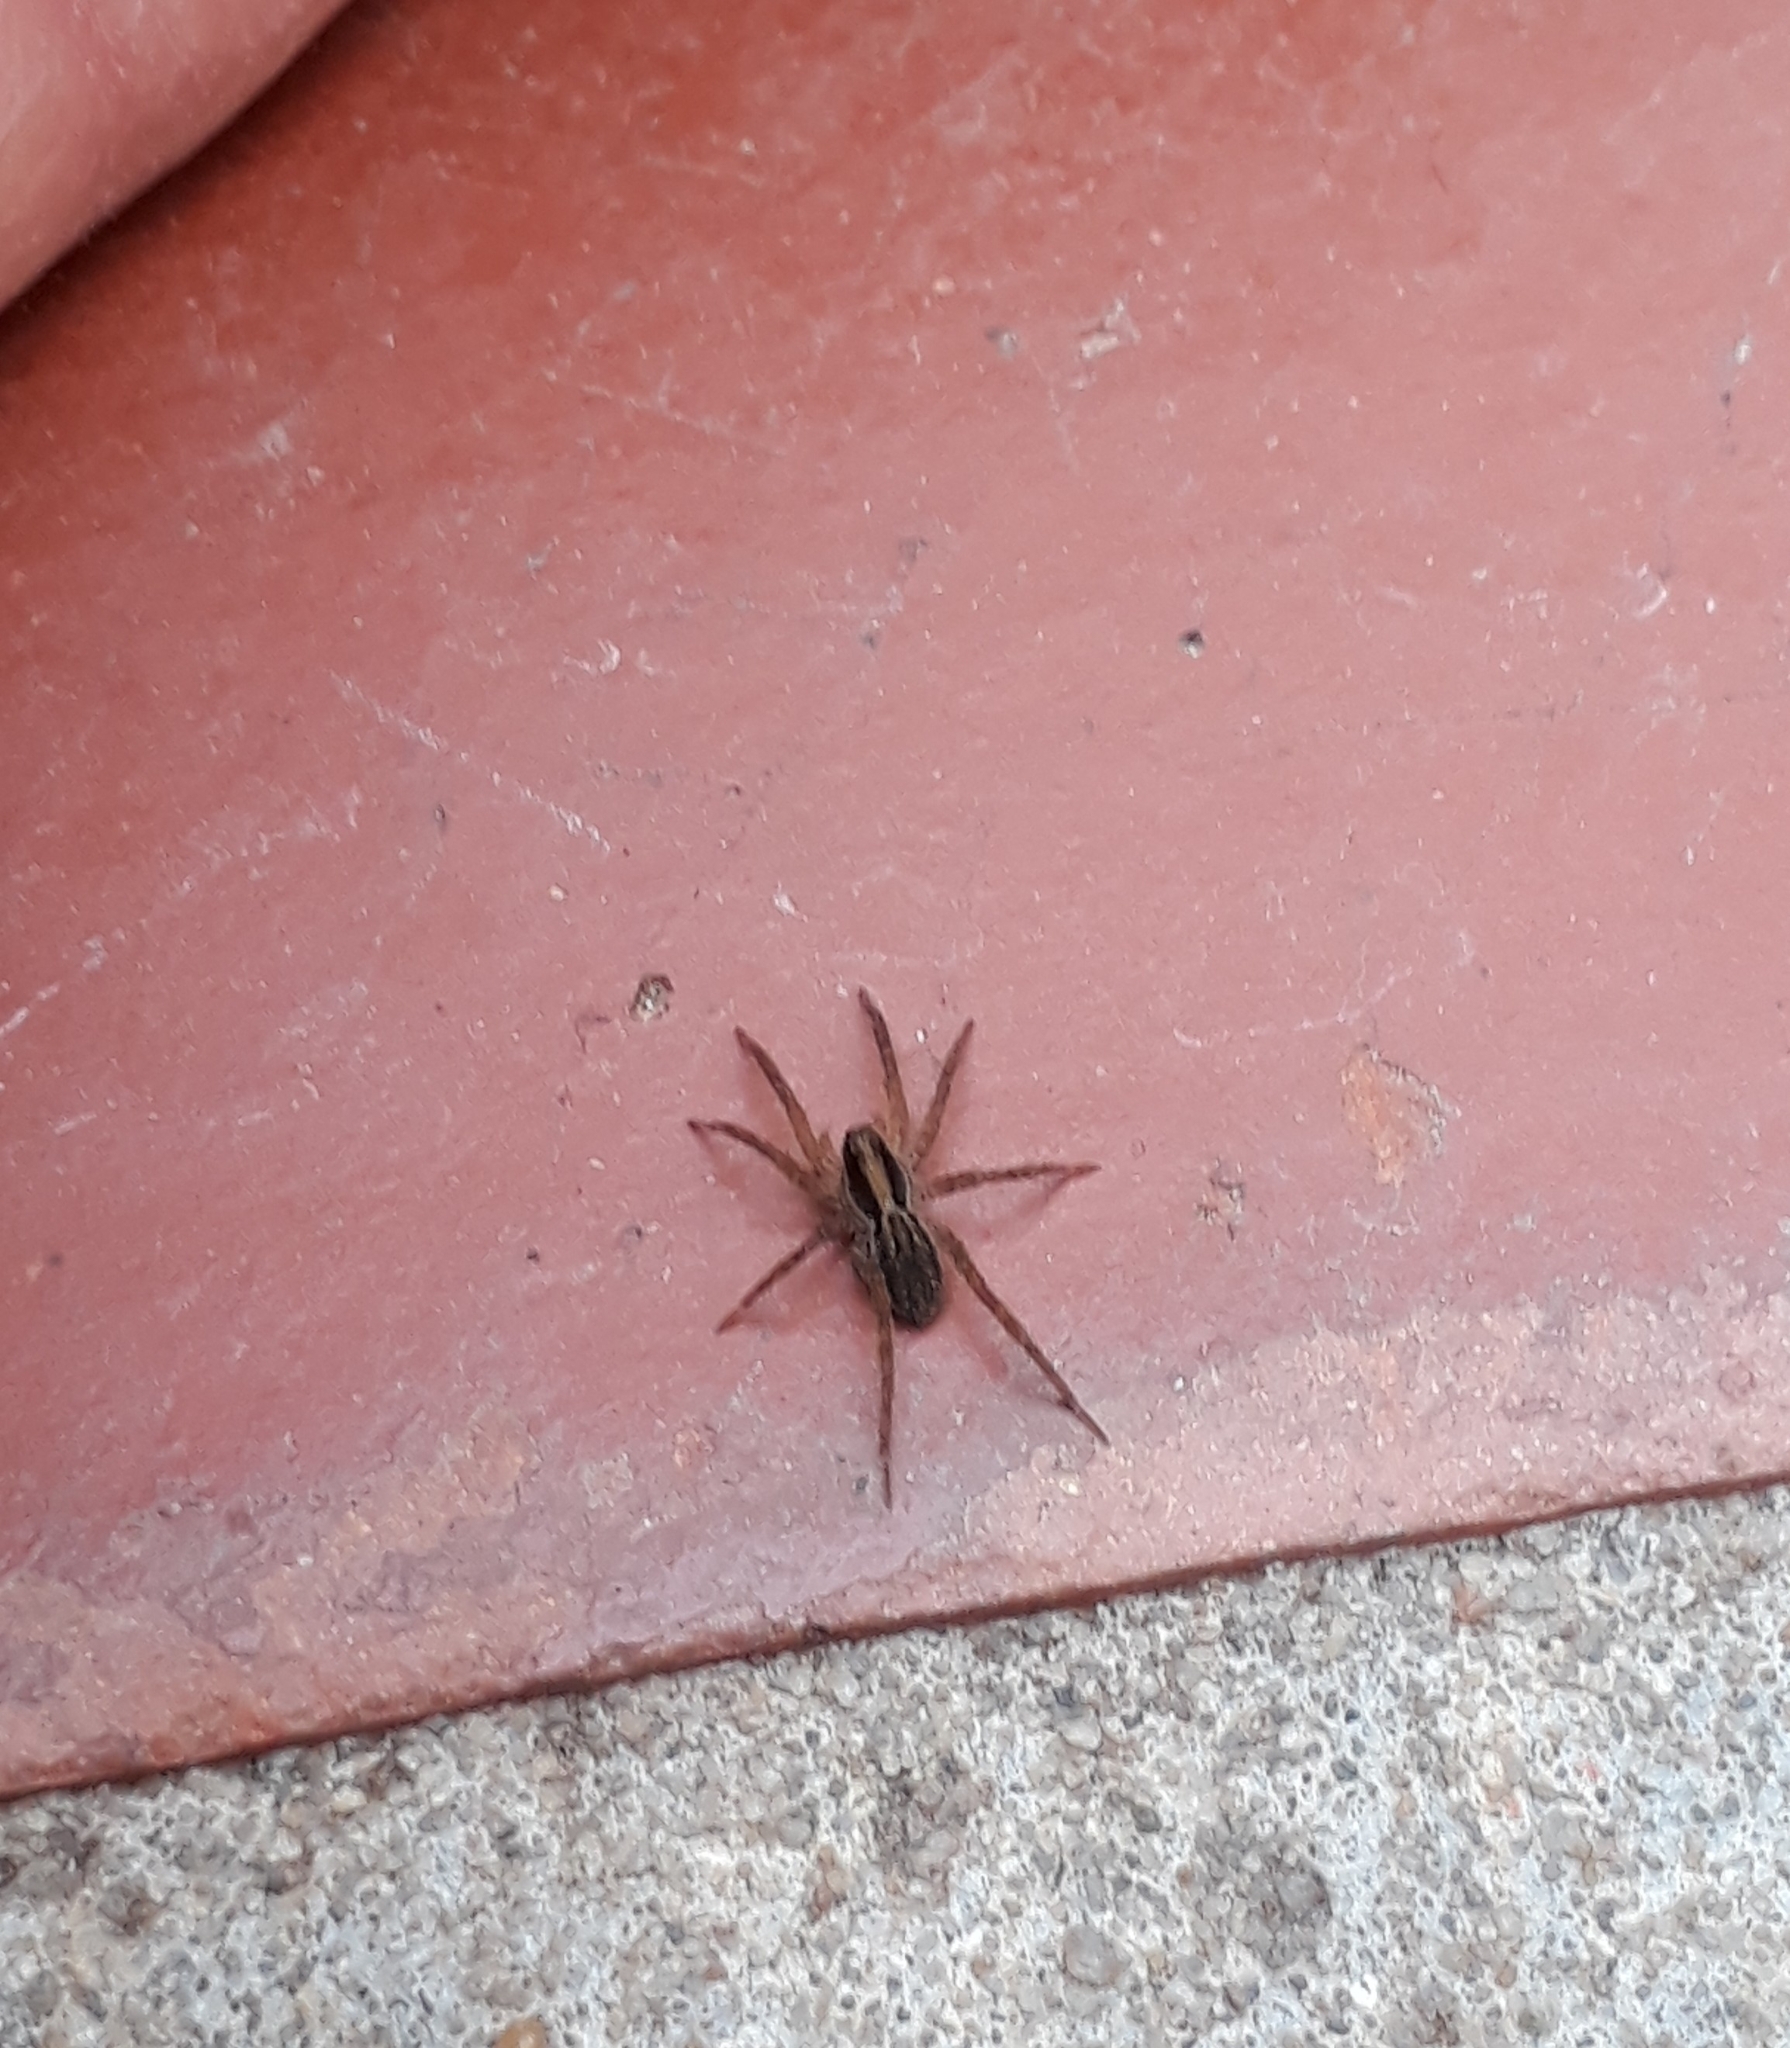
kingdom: Animalia
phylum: Arthropoda
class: Arachnida
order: Araneae
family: Lycosidae
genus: Alopecosa
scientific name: Alopecosa moesta
